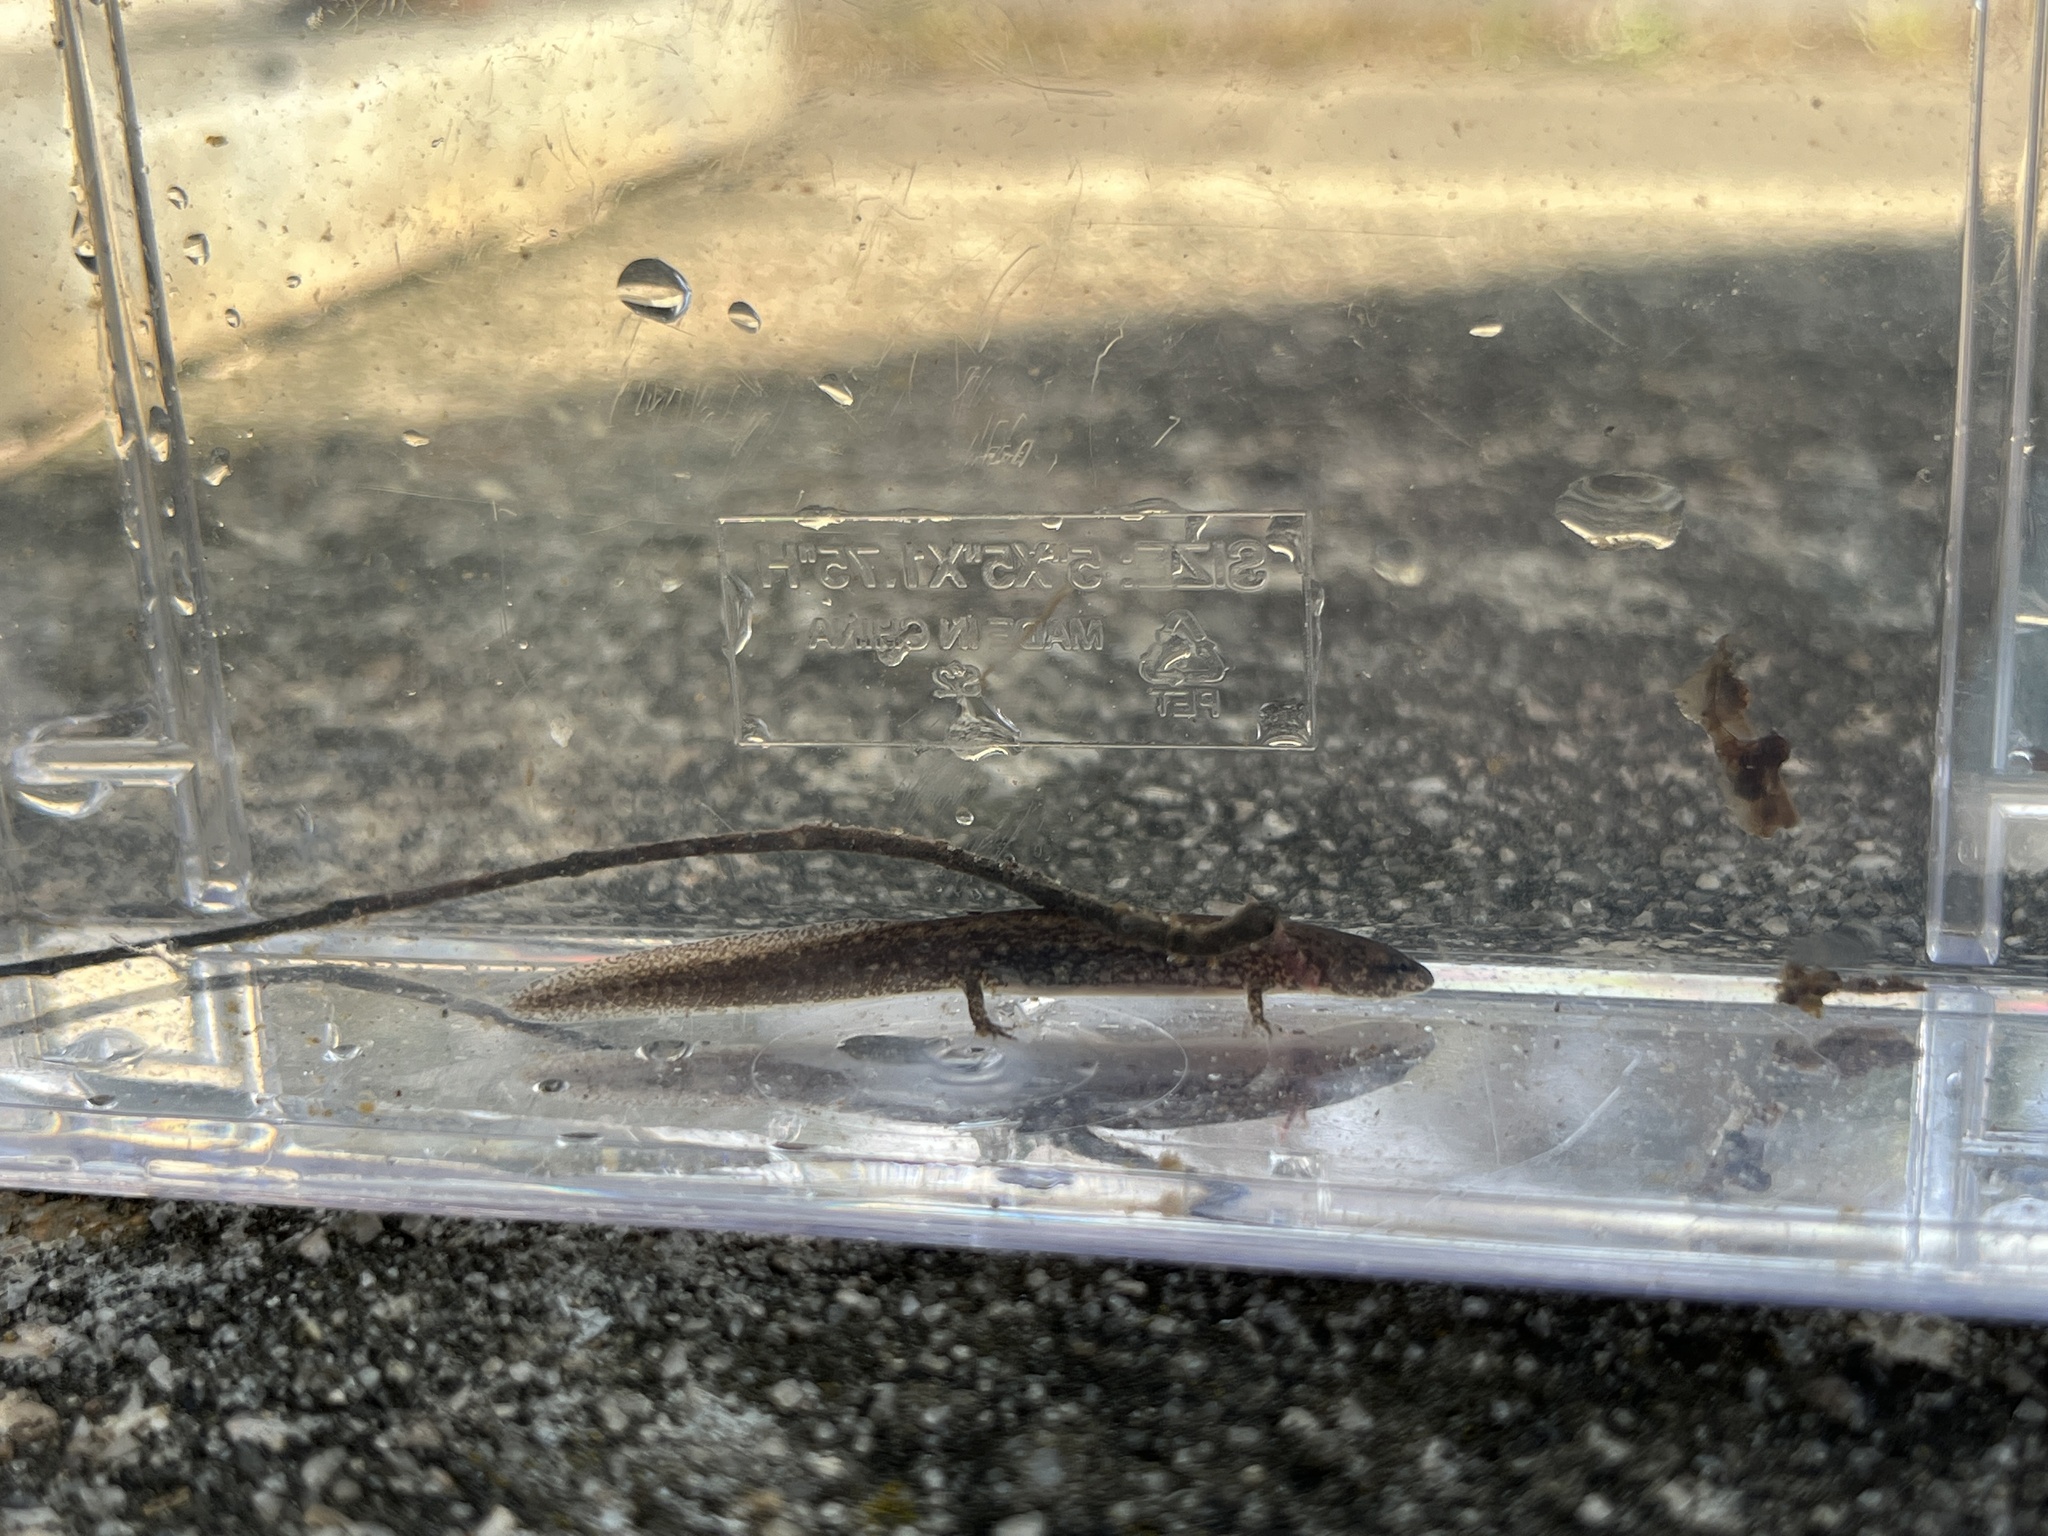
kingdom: Animalia
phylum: Chordata
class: Amphibia
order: Caudata
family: Plethodontidae
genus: Eurycea
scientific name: Eurycea arenicola
